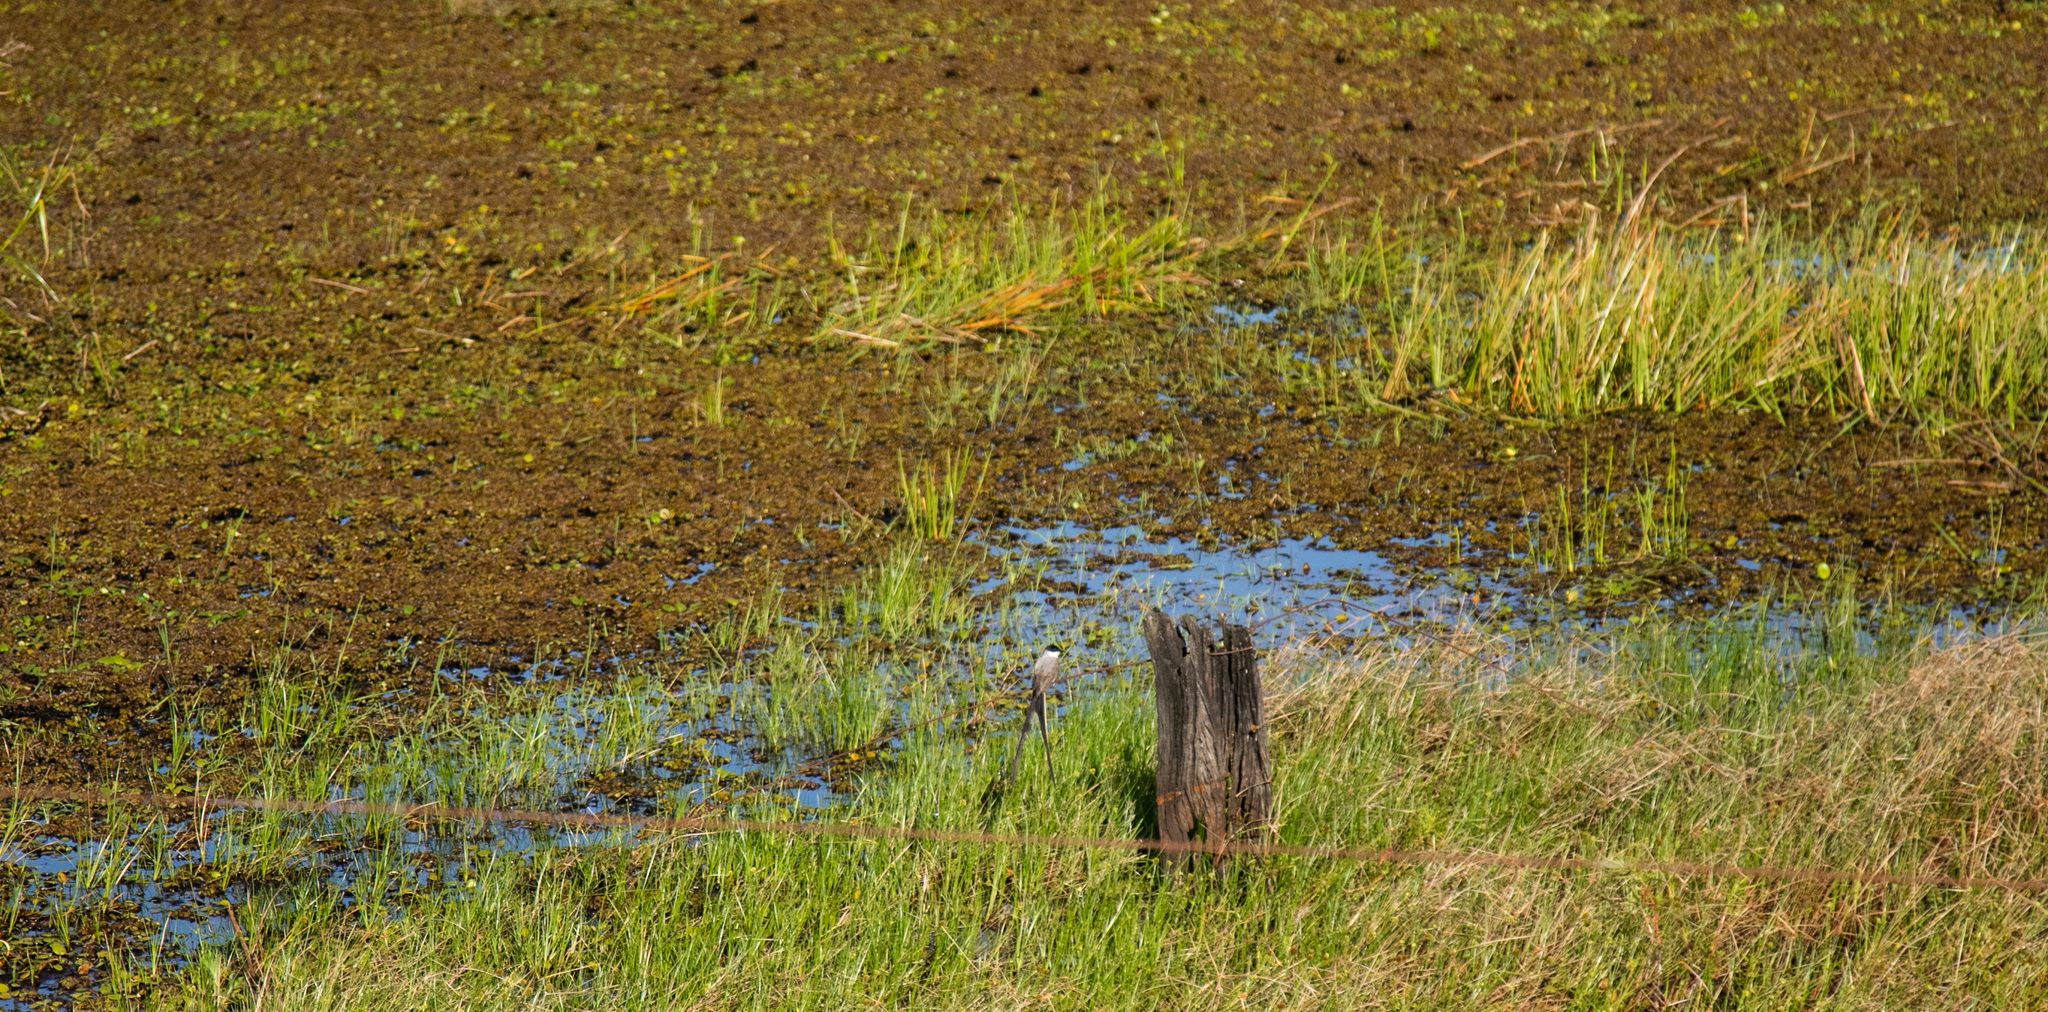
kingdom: Animalia
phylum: Chordata
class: Aves
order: Passeriformes
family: Tyrannidae
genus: Tyrannus
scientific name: Tyrannus savana
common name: Fork-tailed flycatcher
